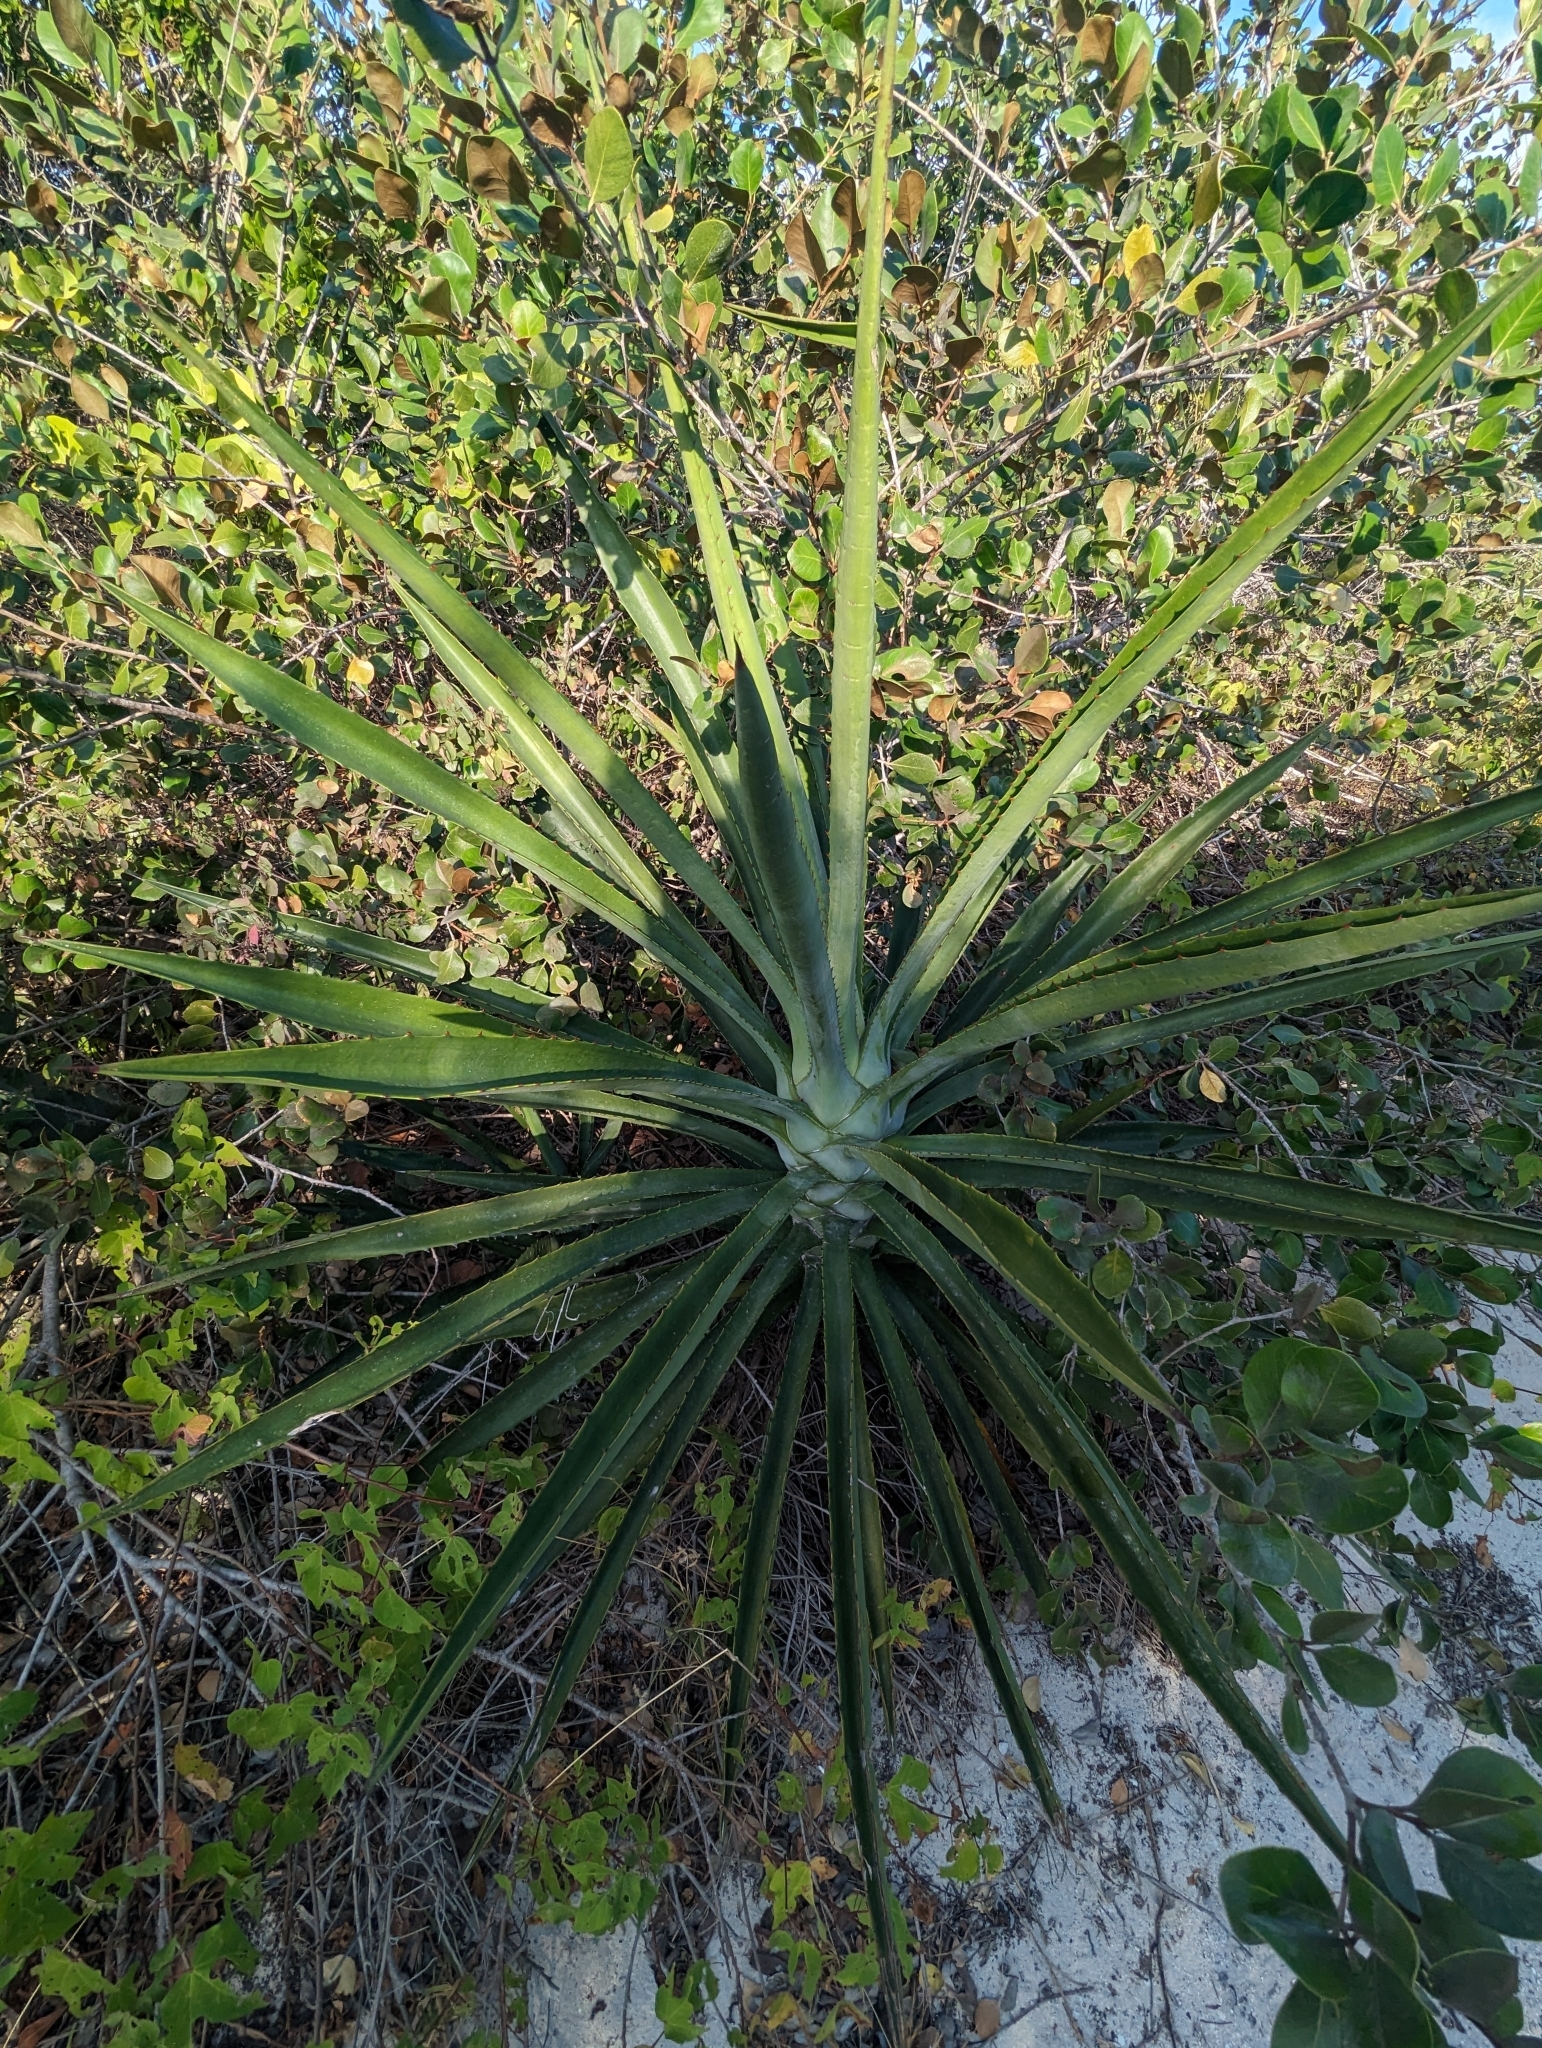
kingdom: Plantae
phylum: Tracheophyta
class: Liliopsida
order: Asparagales
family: Asparagaceae
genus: Agave
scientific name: Agave angustifolia
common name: Mescal agave
